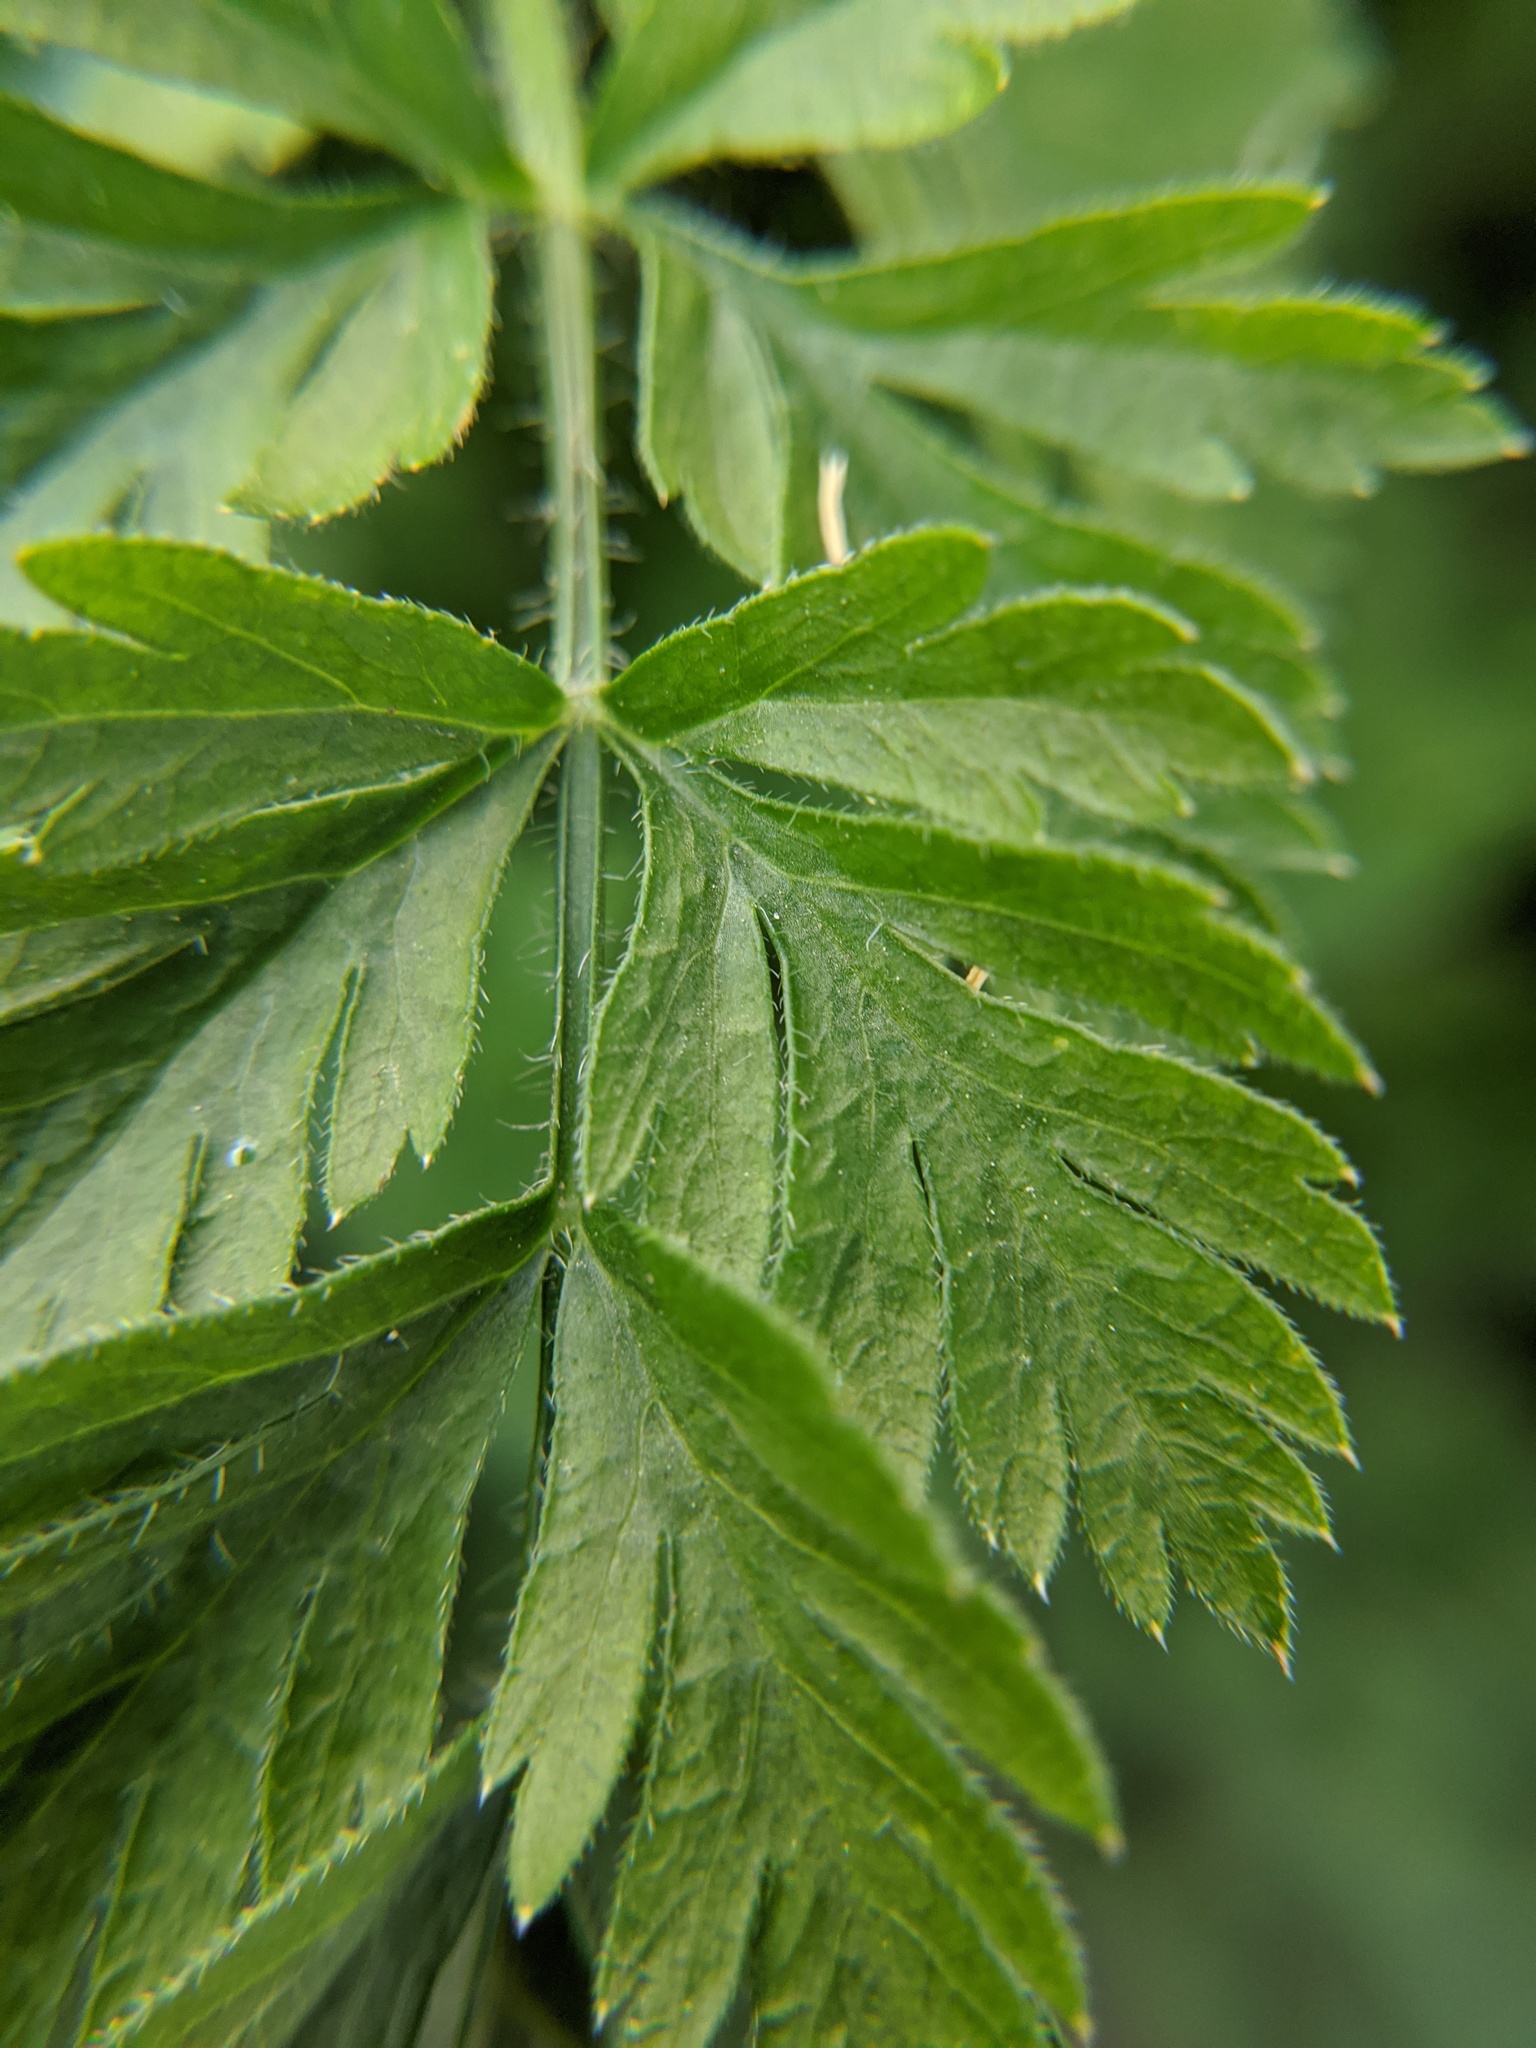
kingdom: Plantae
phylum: Tracheophyta
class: Magnoliopsida
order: Apiales
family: Apiaceae
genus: Daucus
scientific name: Daucus carota
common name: Wild carrot
